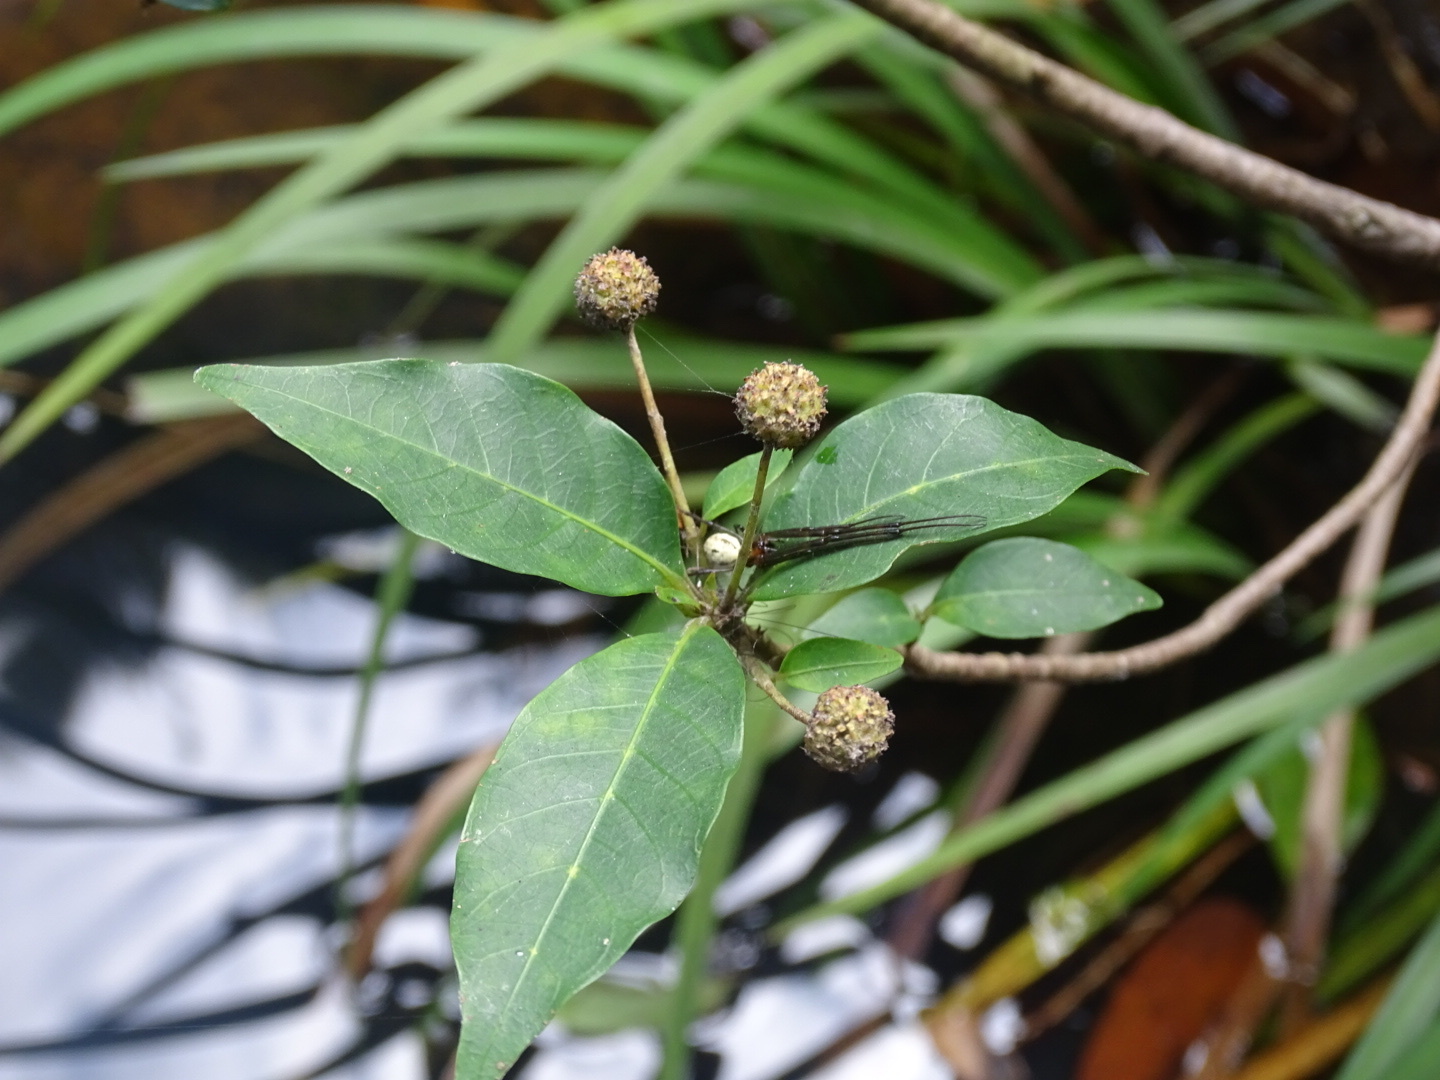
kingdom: Plantae
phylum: Tracheophyta
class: Magnoliopsida
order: Gentianales
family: Rubiaceae
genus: Adina
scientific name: Adina pilulifera
